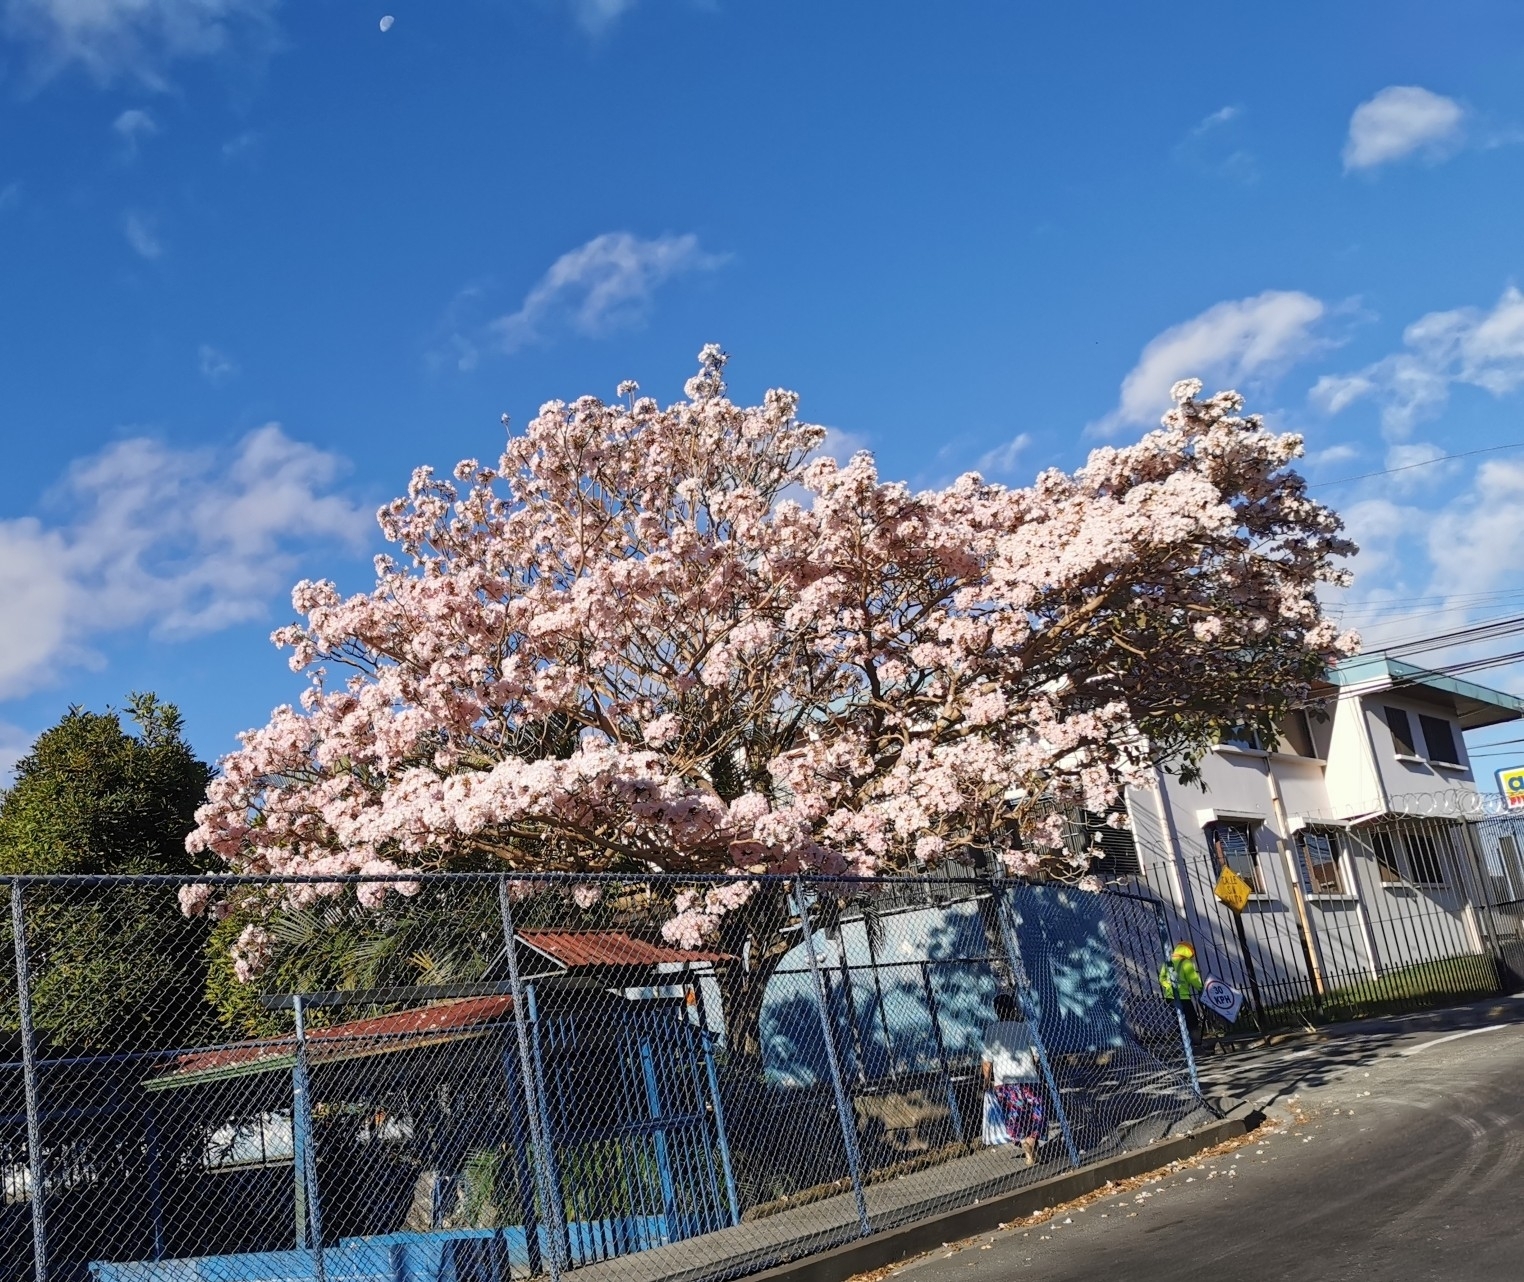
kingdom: Plantae
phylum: Tracheophyta
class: Magnoliopsida
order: Lamiales
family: Bignoniaceae
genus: Tabebuia
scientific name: Tabebuia rosea
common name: Pink poui
